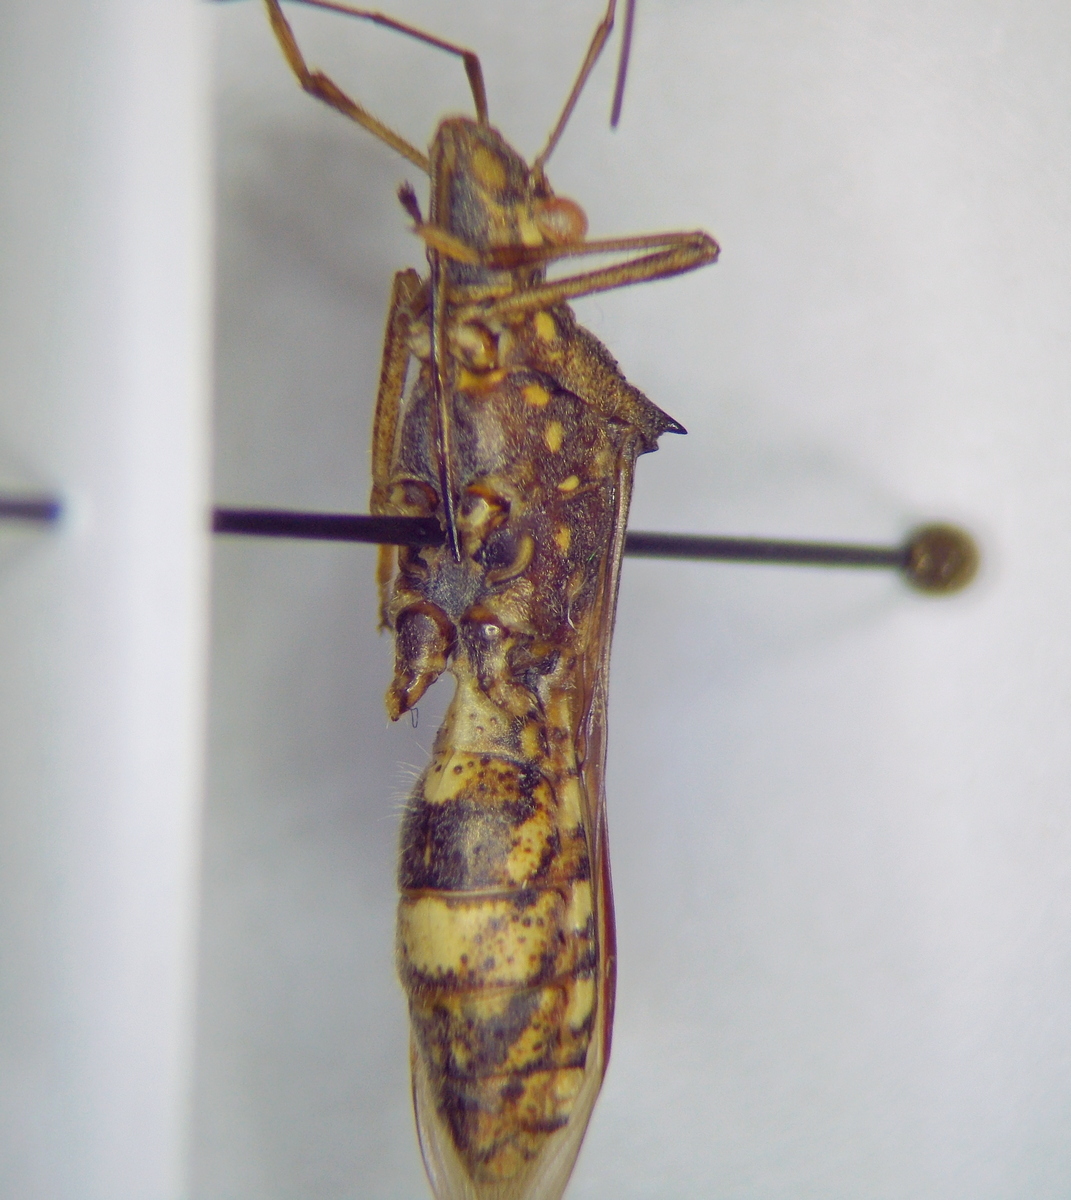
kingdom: Animalia
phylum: Arthropoda
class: Insecta
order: Hemiptera
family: Alydidae
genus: Riptortus
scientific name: Riptortus pedestris
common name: Bean bug
